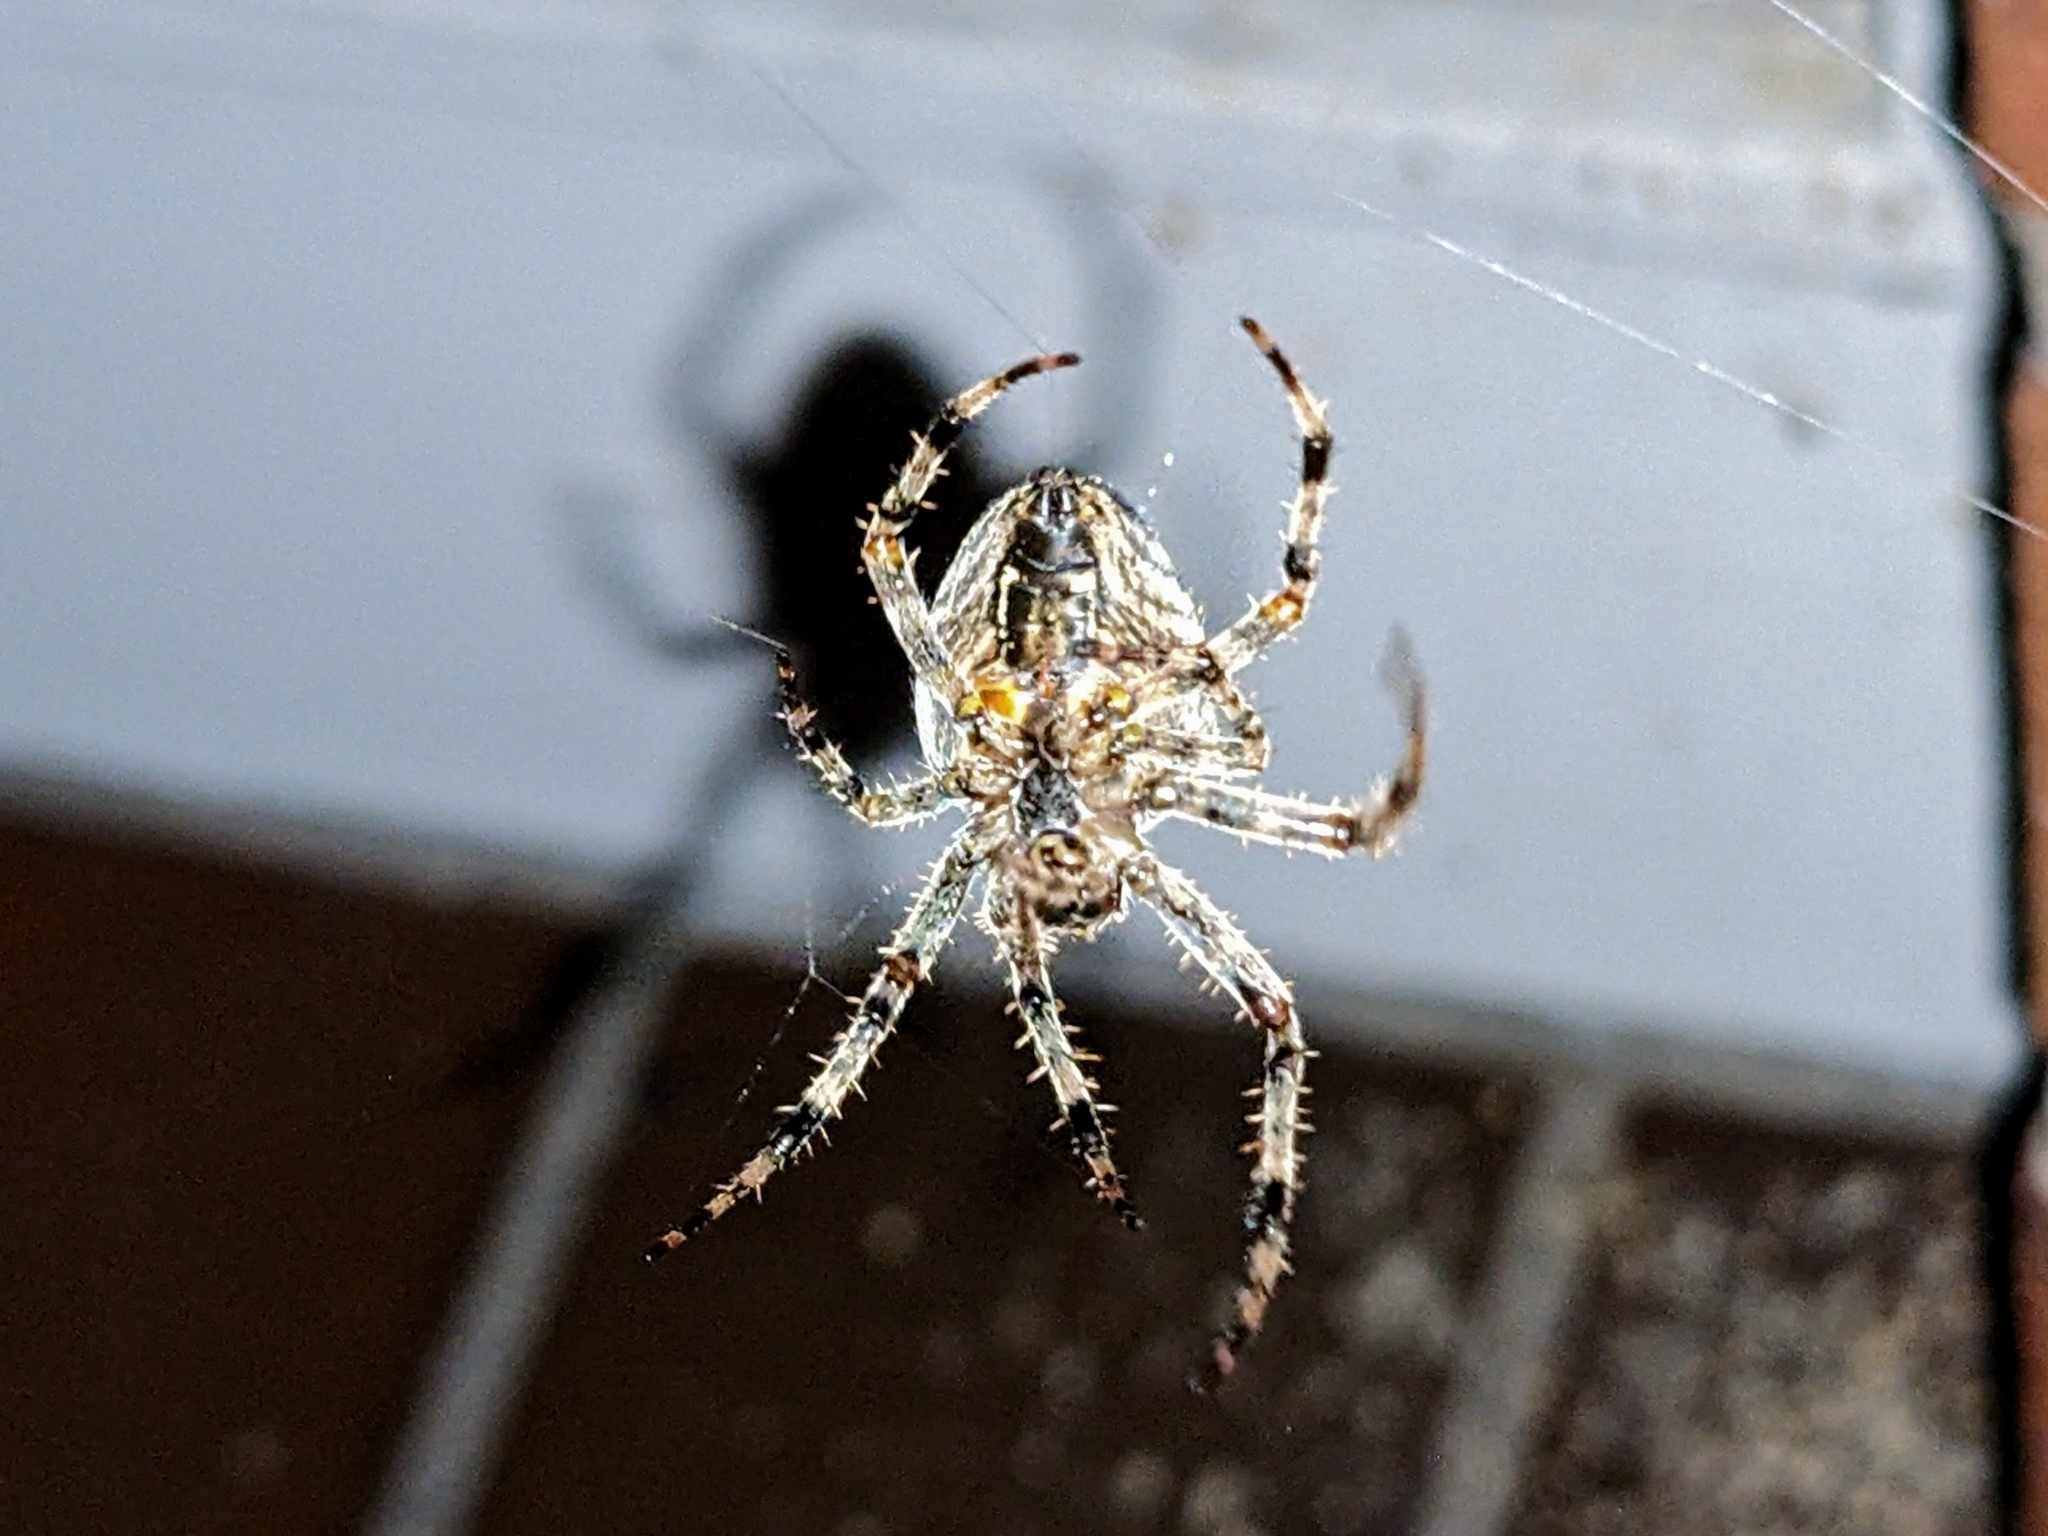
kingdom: Animalia
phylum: Arthropoda
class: Arachnida
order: Araneae
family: Araneidae
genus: Araneus
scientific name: Araneus diadematus
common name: Cross orbweaver
